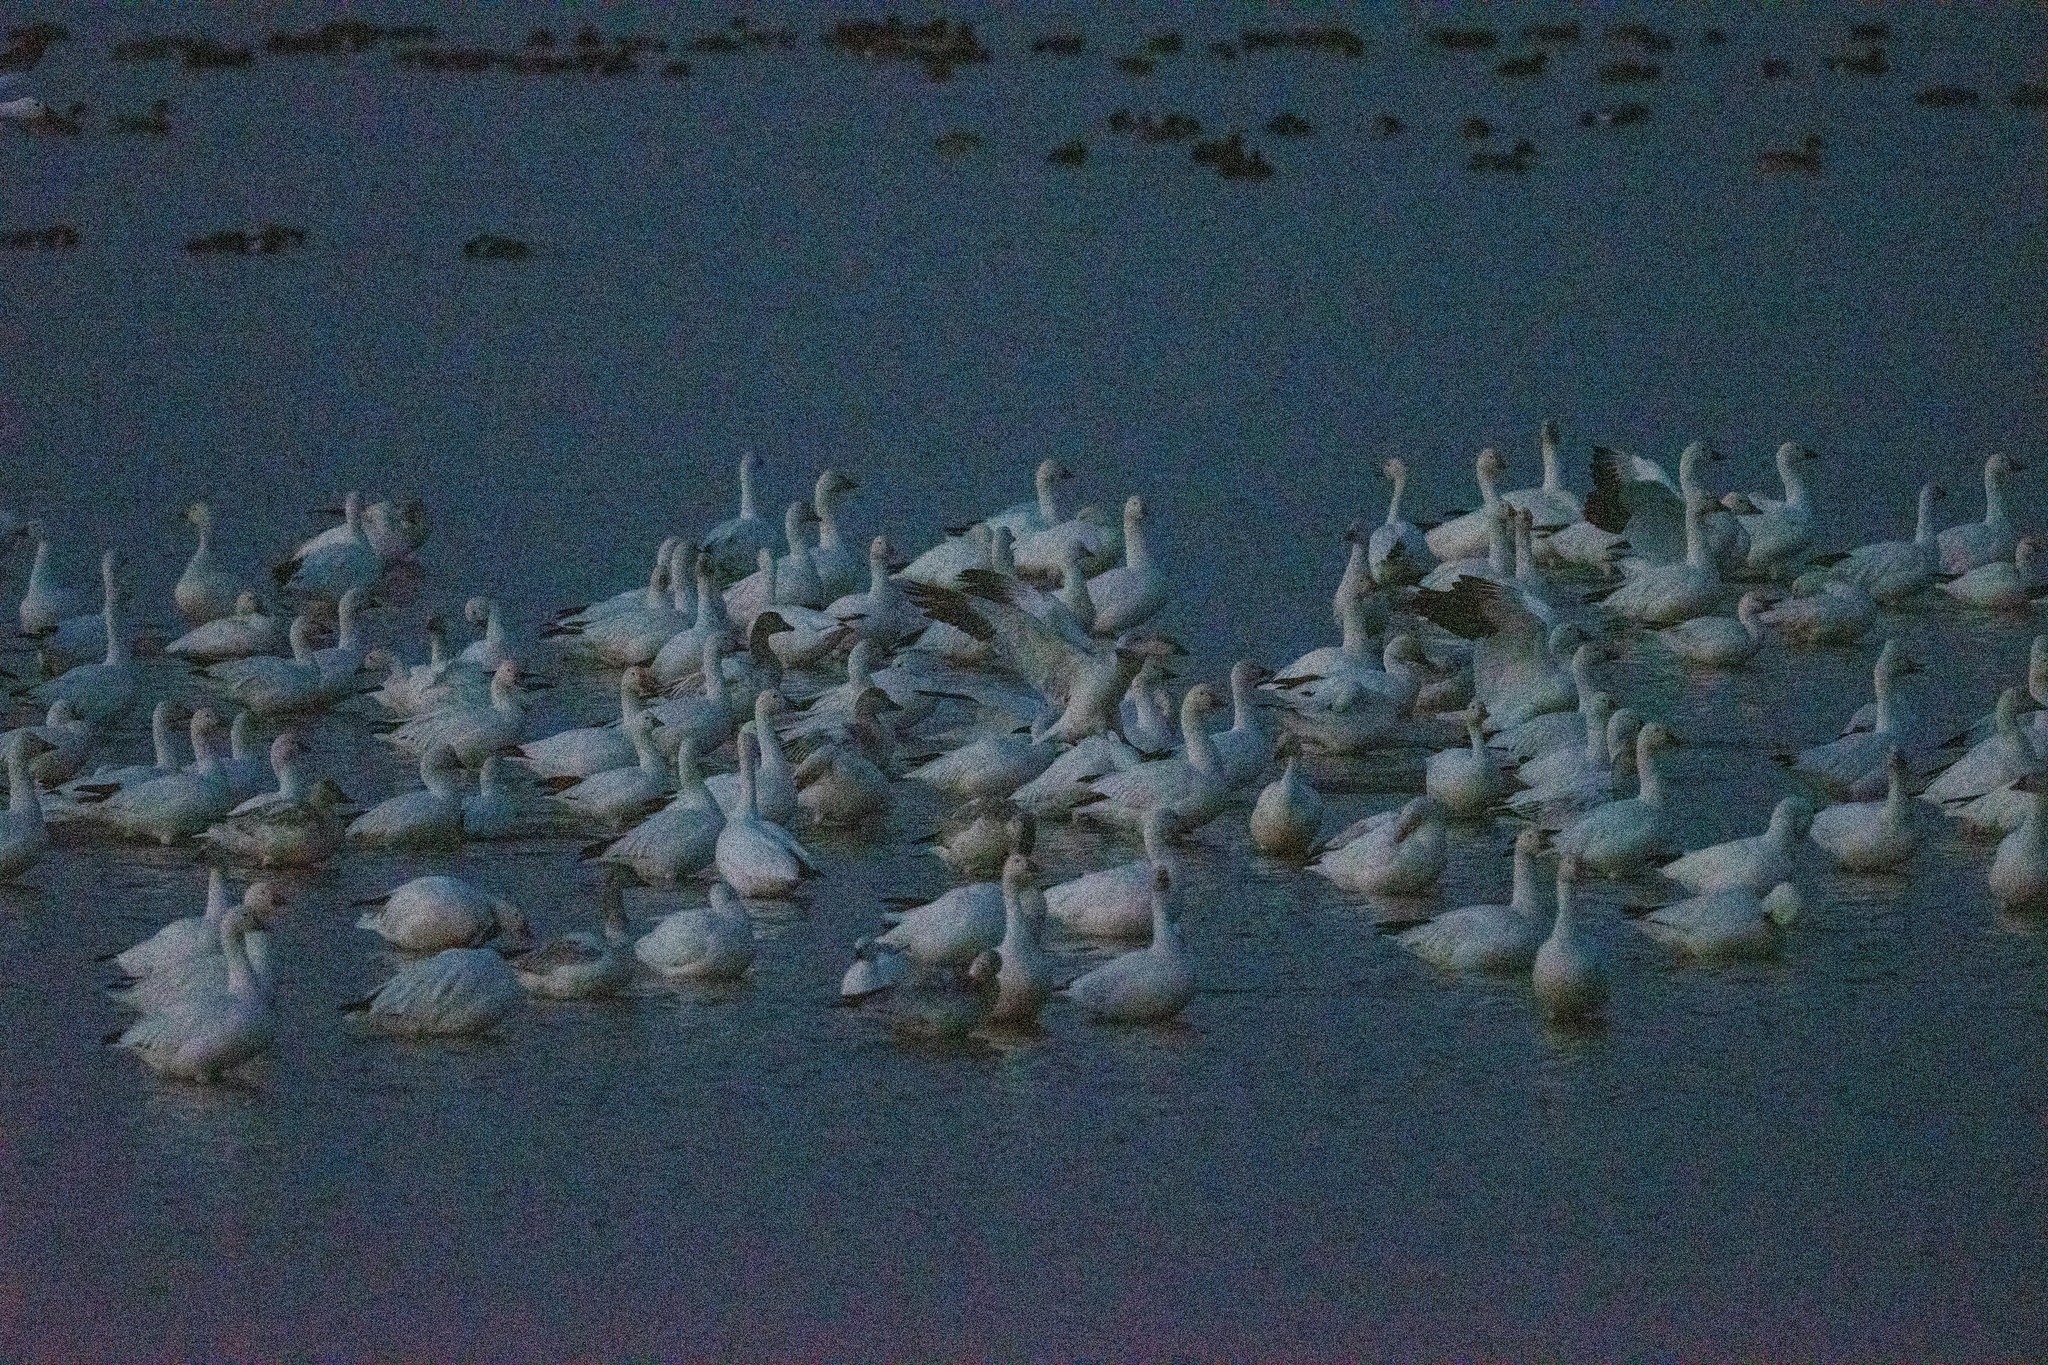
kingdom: Animalia
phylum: Chordata
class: Aves
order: Anseriformes
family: Anatidae
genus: Anser
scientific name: Anser caerulescens
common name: Snow goose
